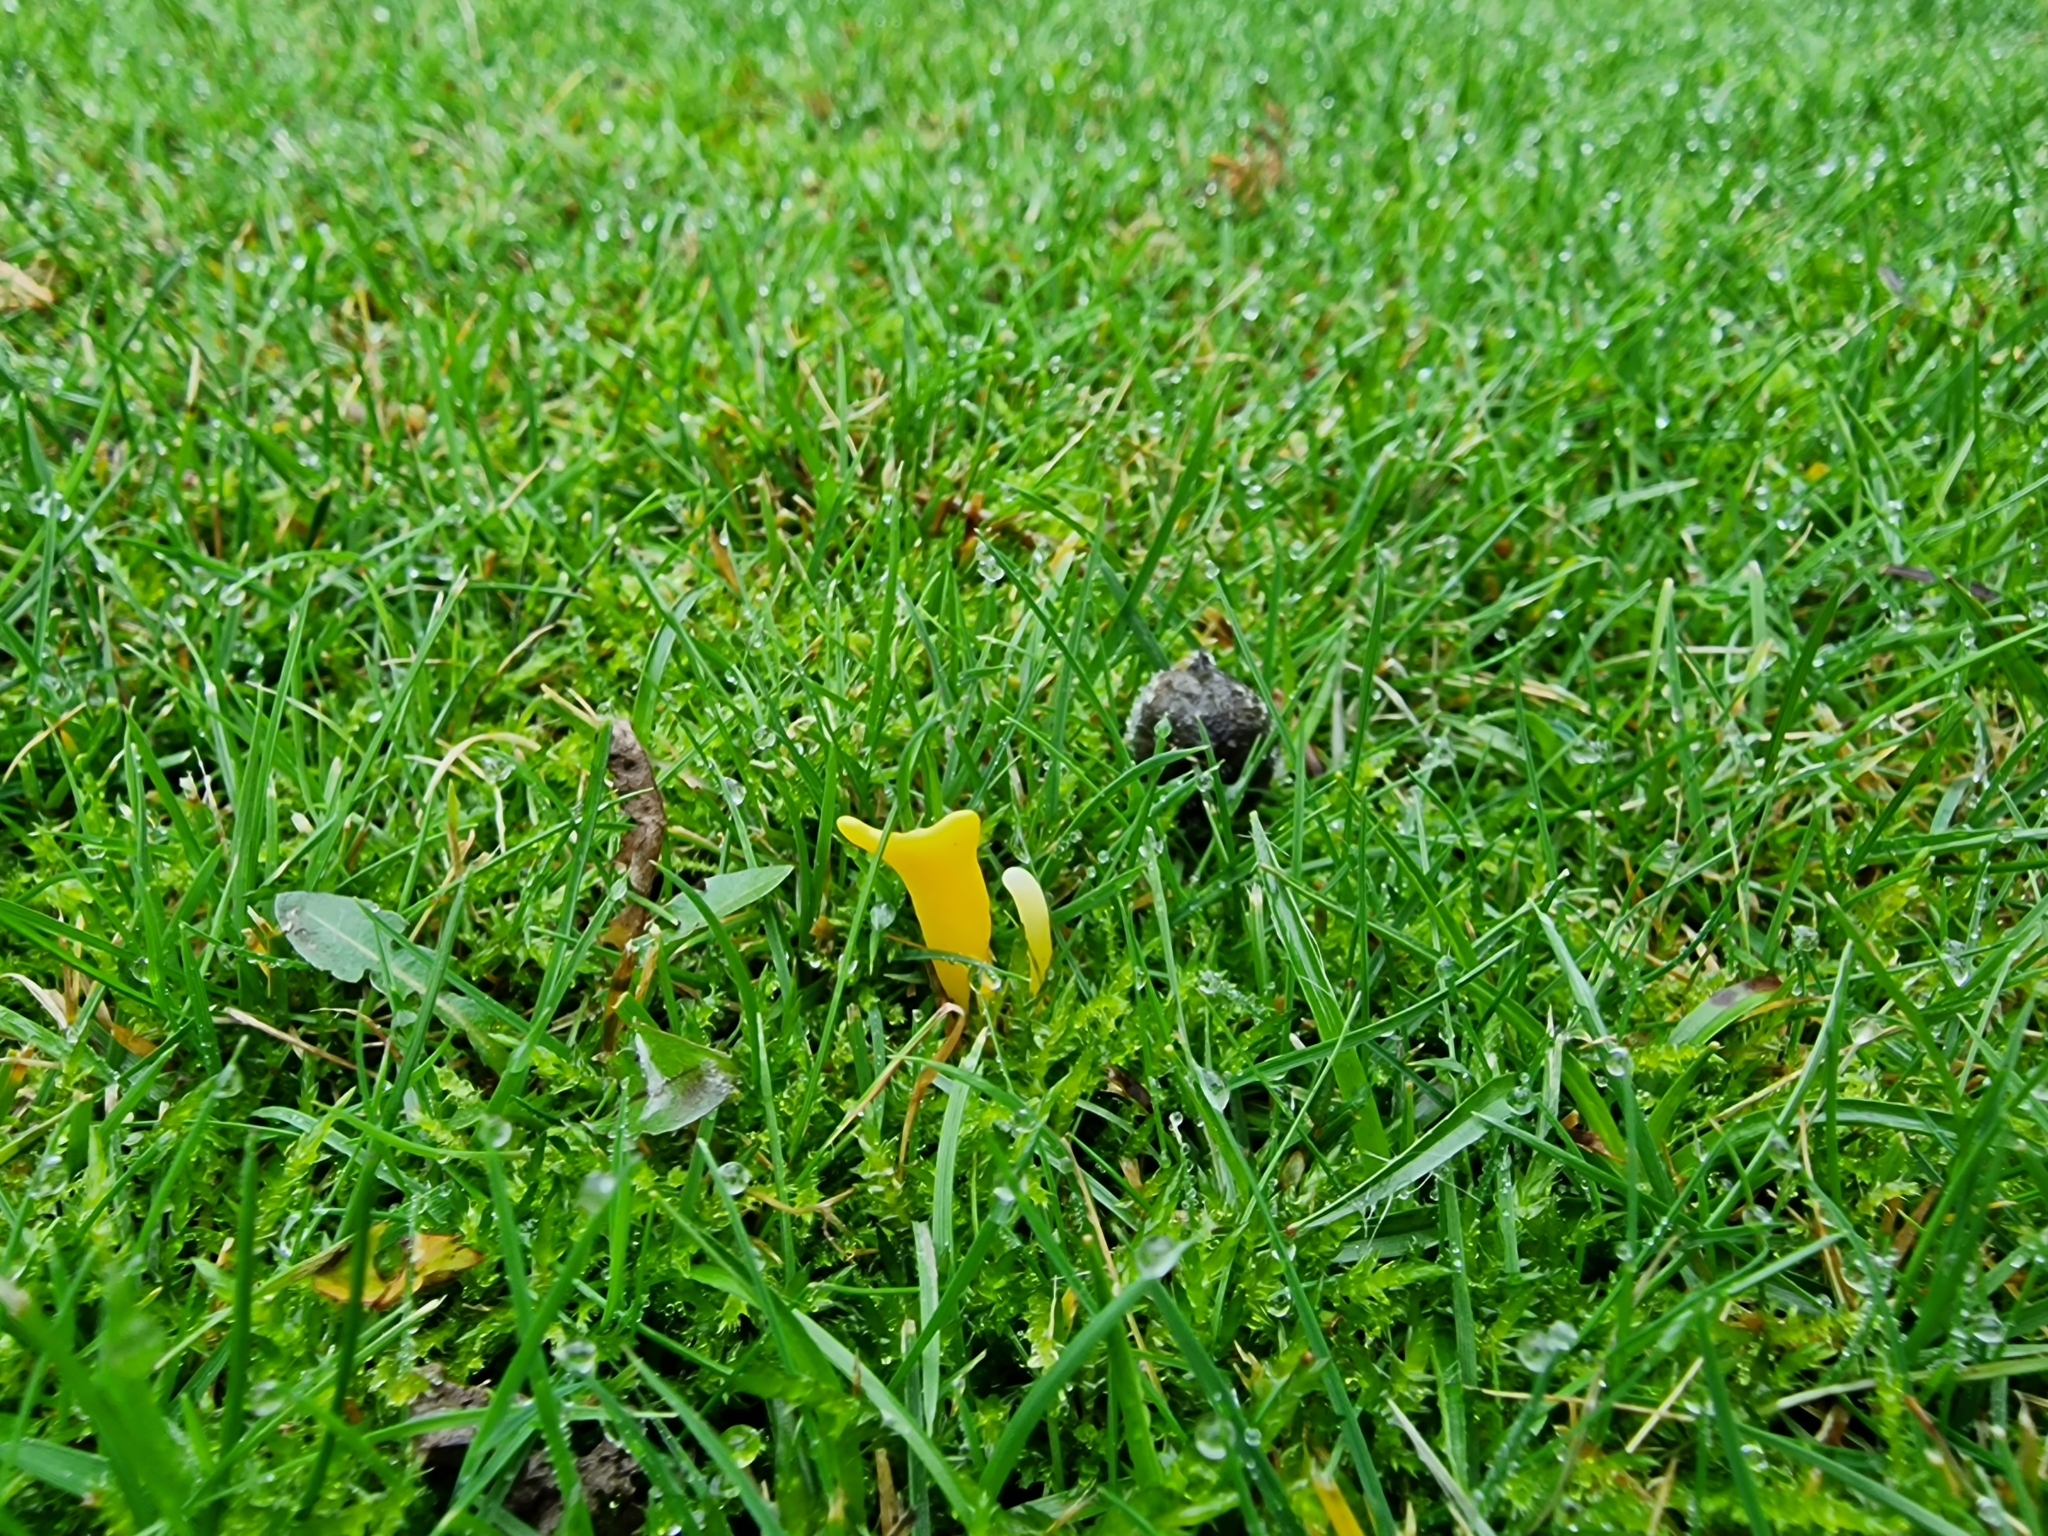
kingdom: Fungi
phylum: Basidiomycota
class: Agaricomycetes
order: Agaricales
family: Clavariaceae
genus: Clavulinopsis
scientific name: Clavulinopsis helvola
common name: Yellow club
